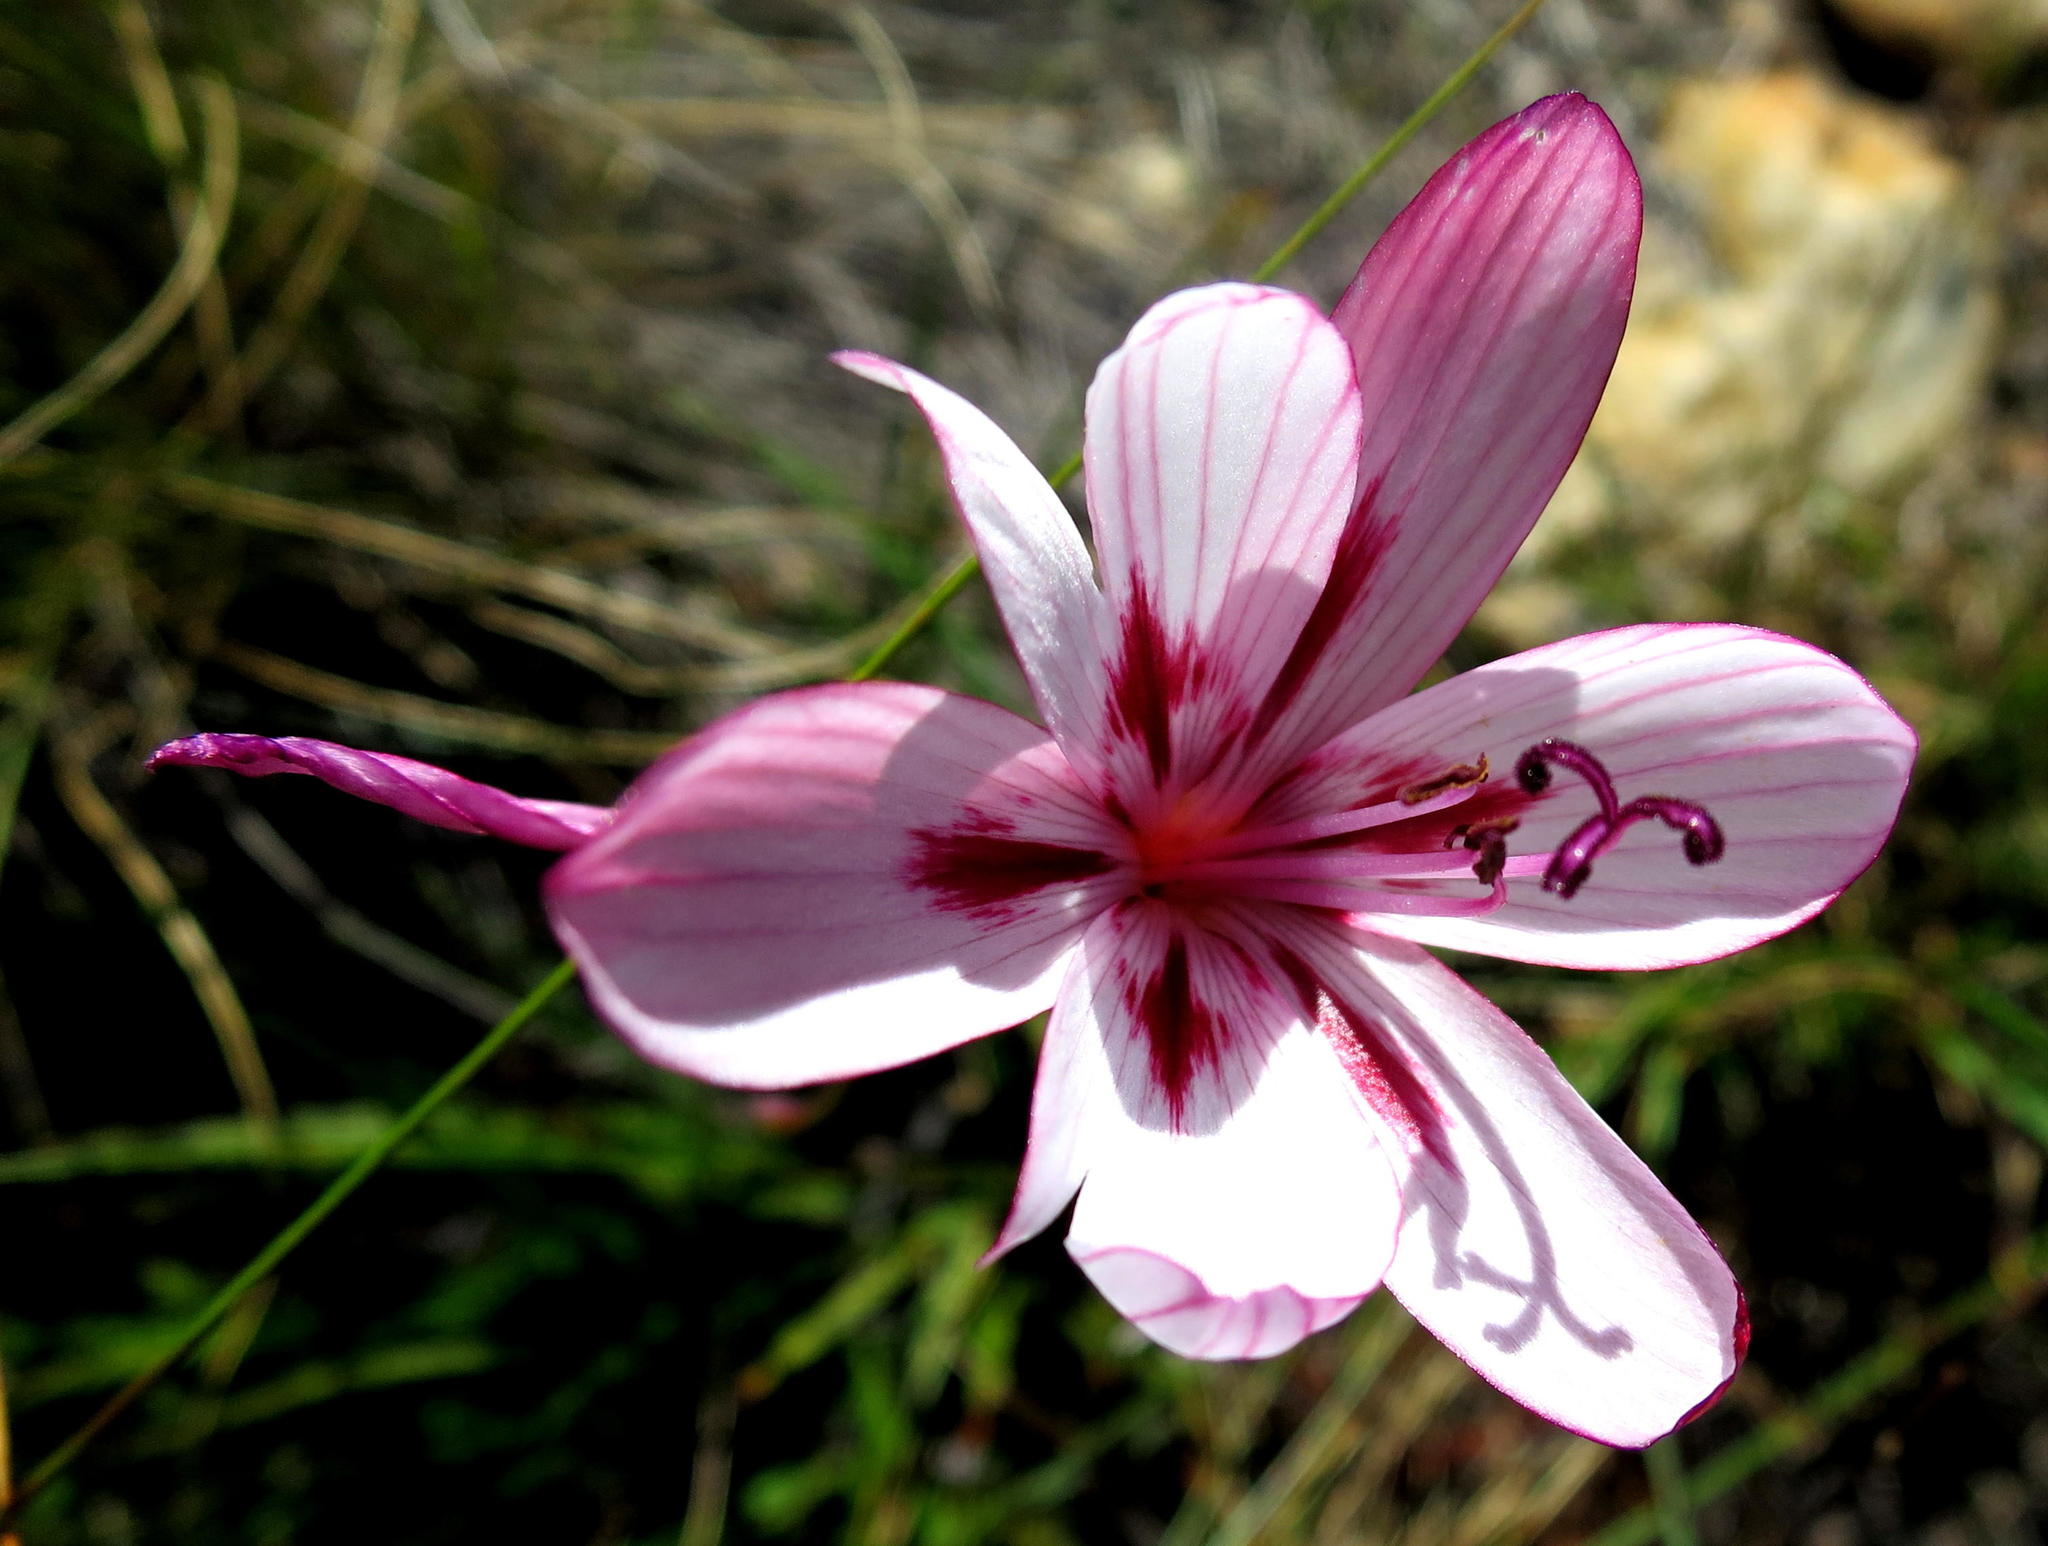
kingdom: Plantae
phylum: Tracheophyta
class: Liliopsida
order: Asparagales
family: Iridaceae
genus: Geissorhiza
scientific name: Geissorhiza roseoalba
